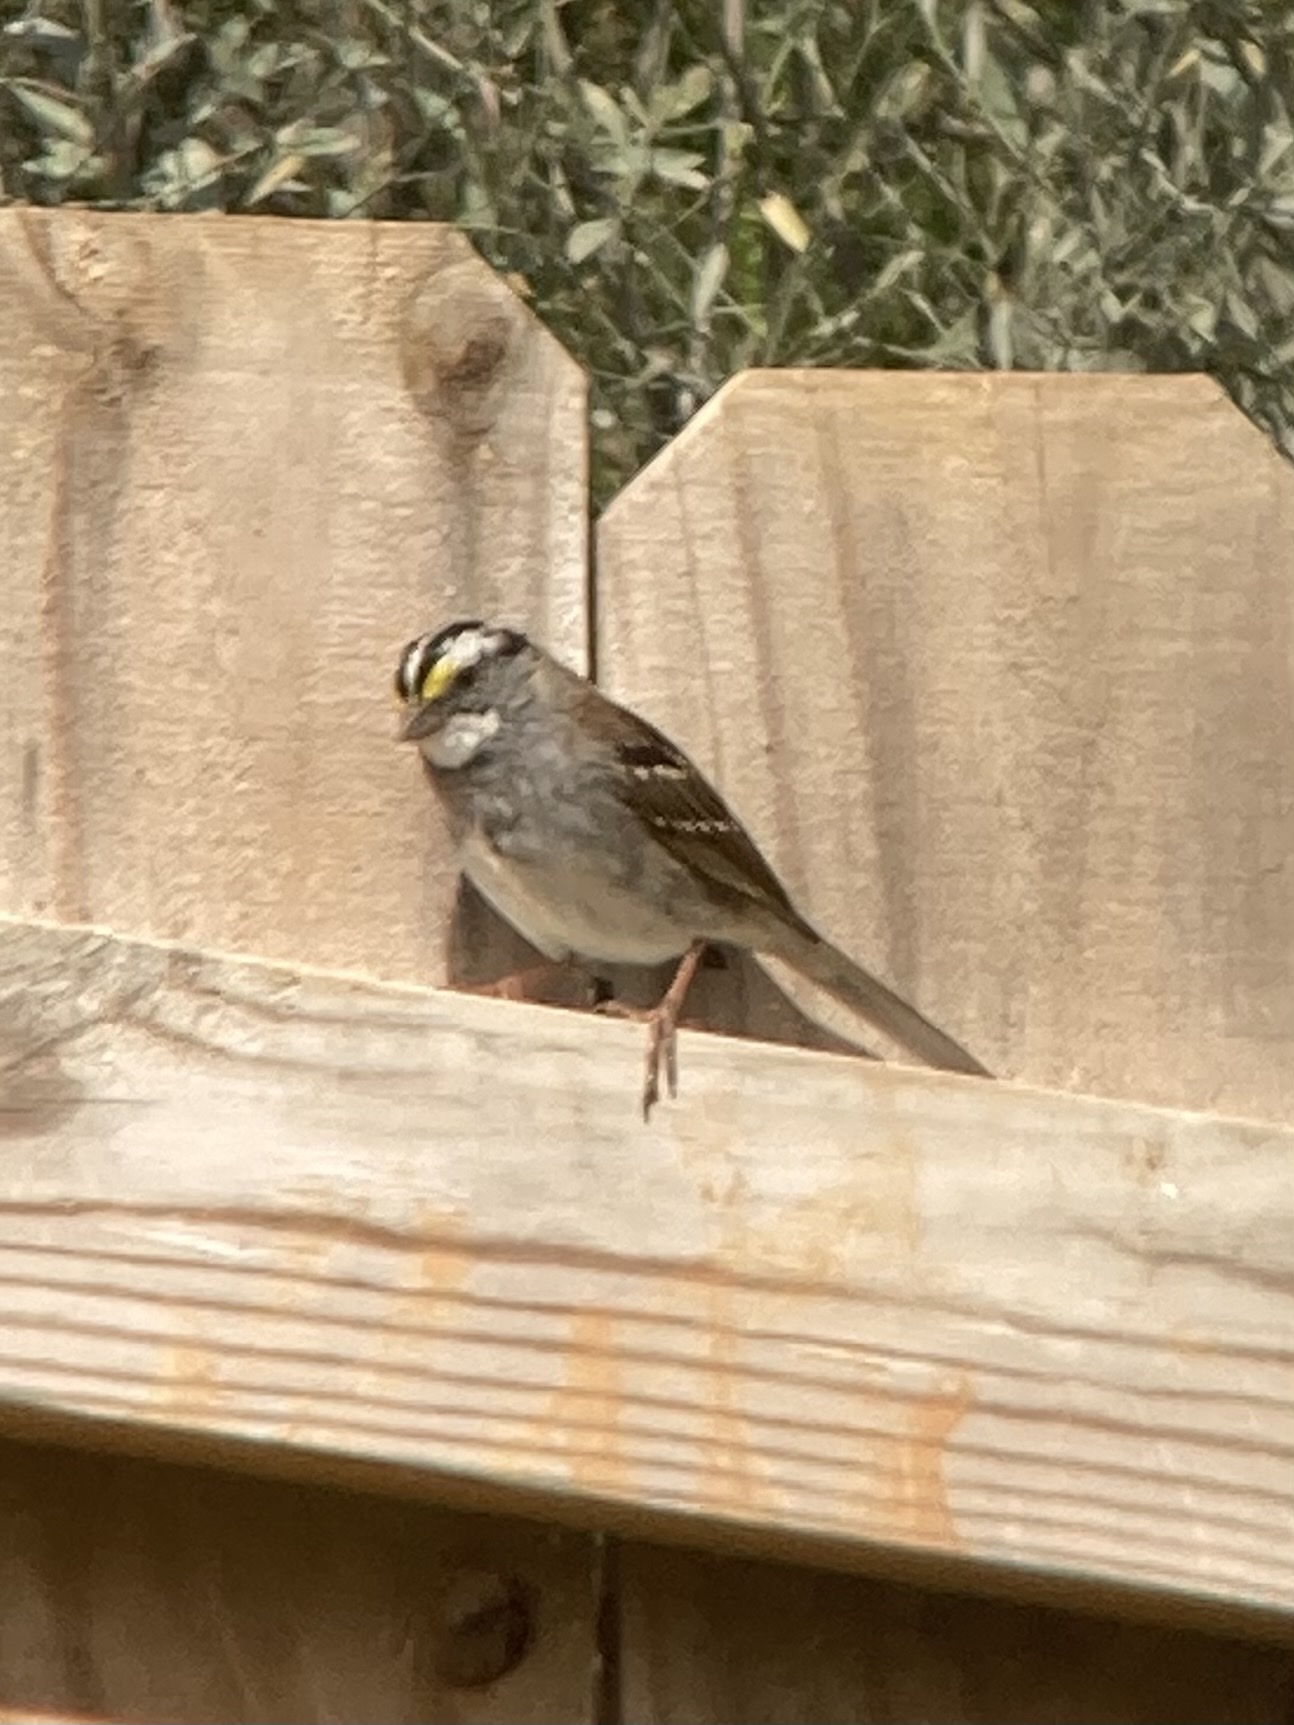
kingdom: Animalia
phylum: Chordata
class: Aves
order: Passeriformes
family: Passerellidae
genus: Zonotrichia
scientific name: Zonotrichia albicollis
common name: White-throated sparrow
